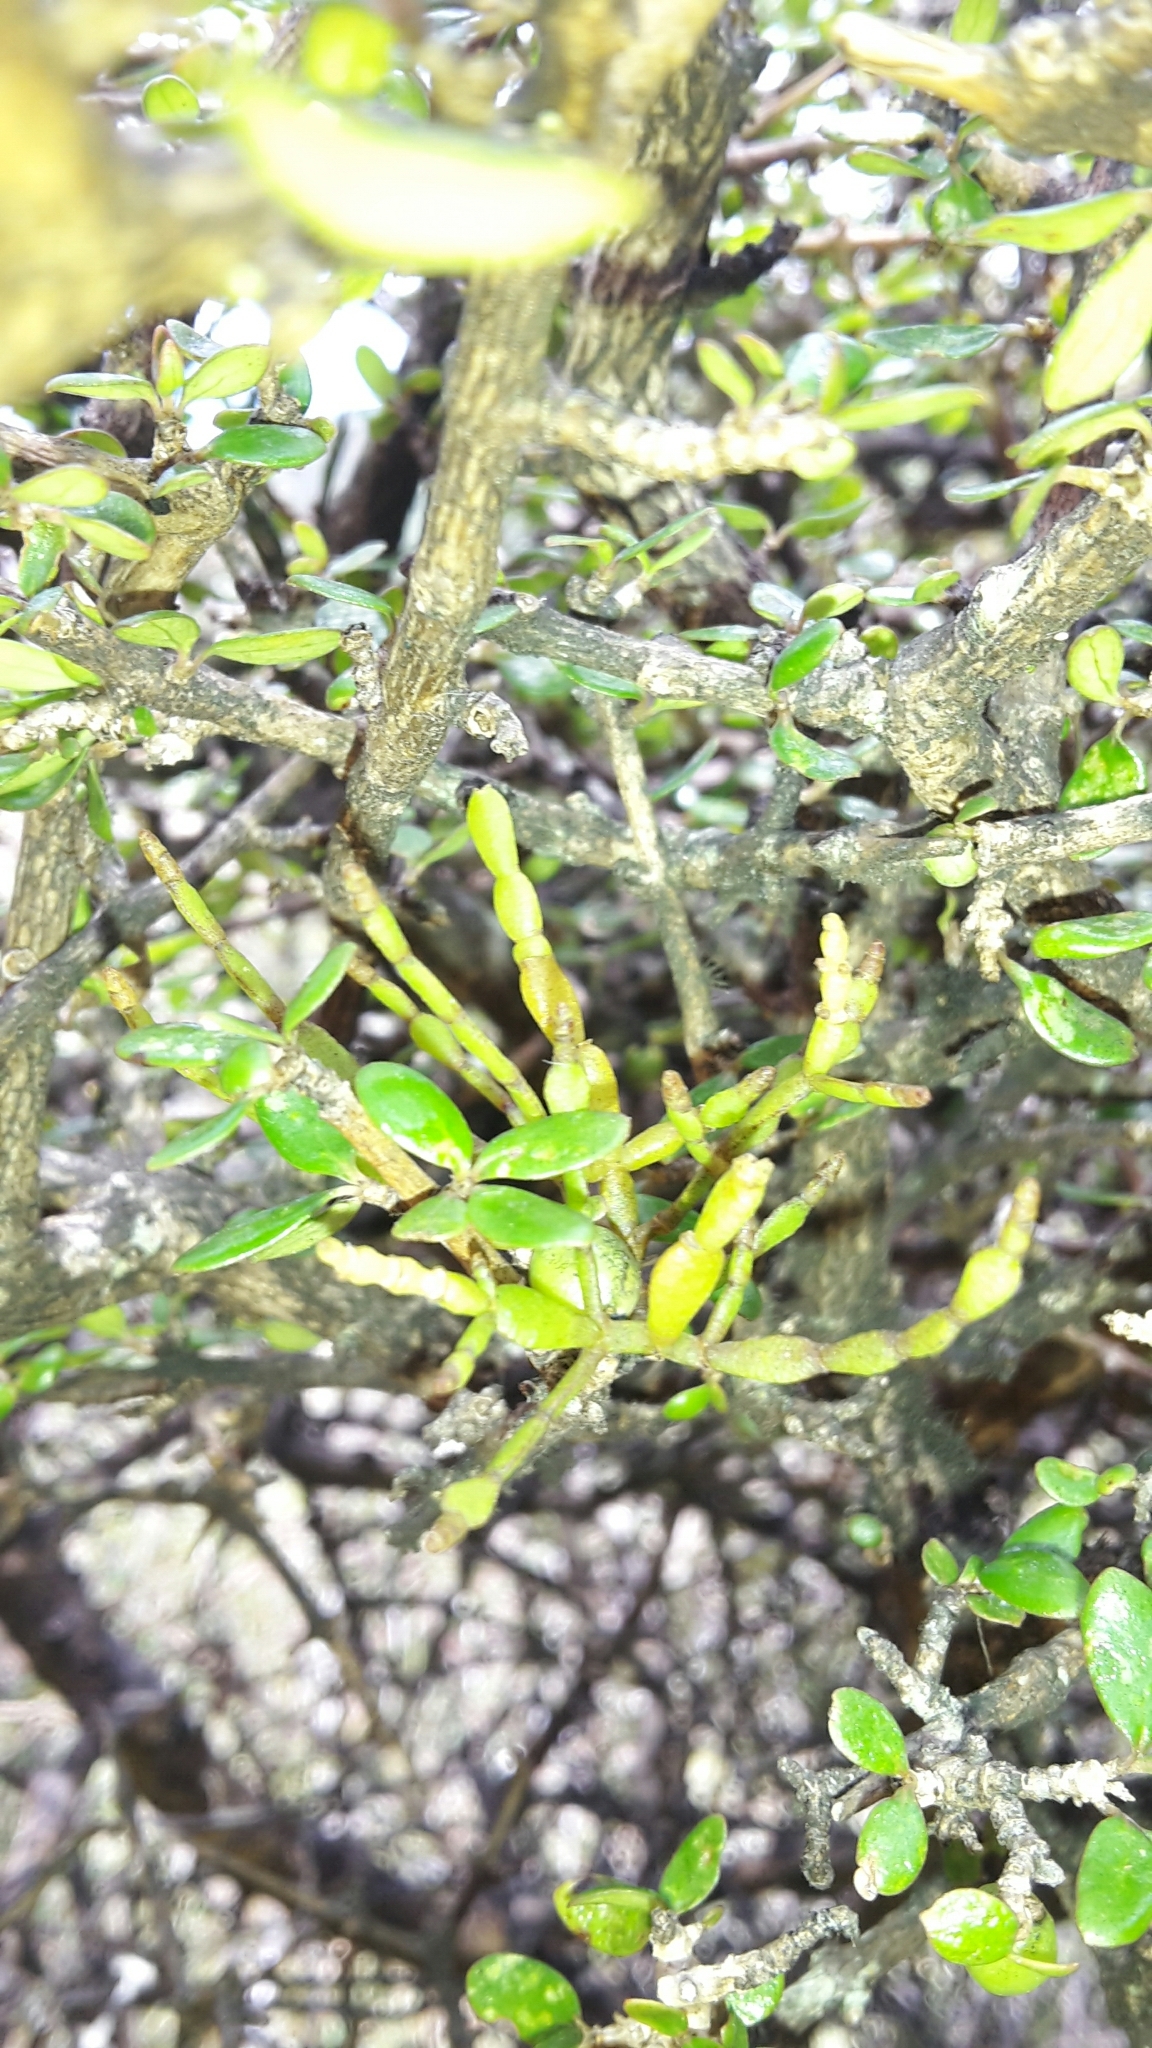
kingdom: Plantae
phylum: Tracheophyta
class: Magnoliopsida
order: Santalales
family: Viscaceae
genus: Korthalsella
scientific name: Korthalsella clavata
